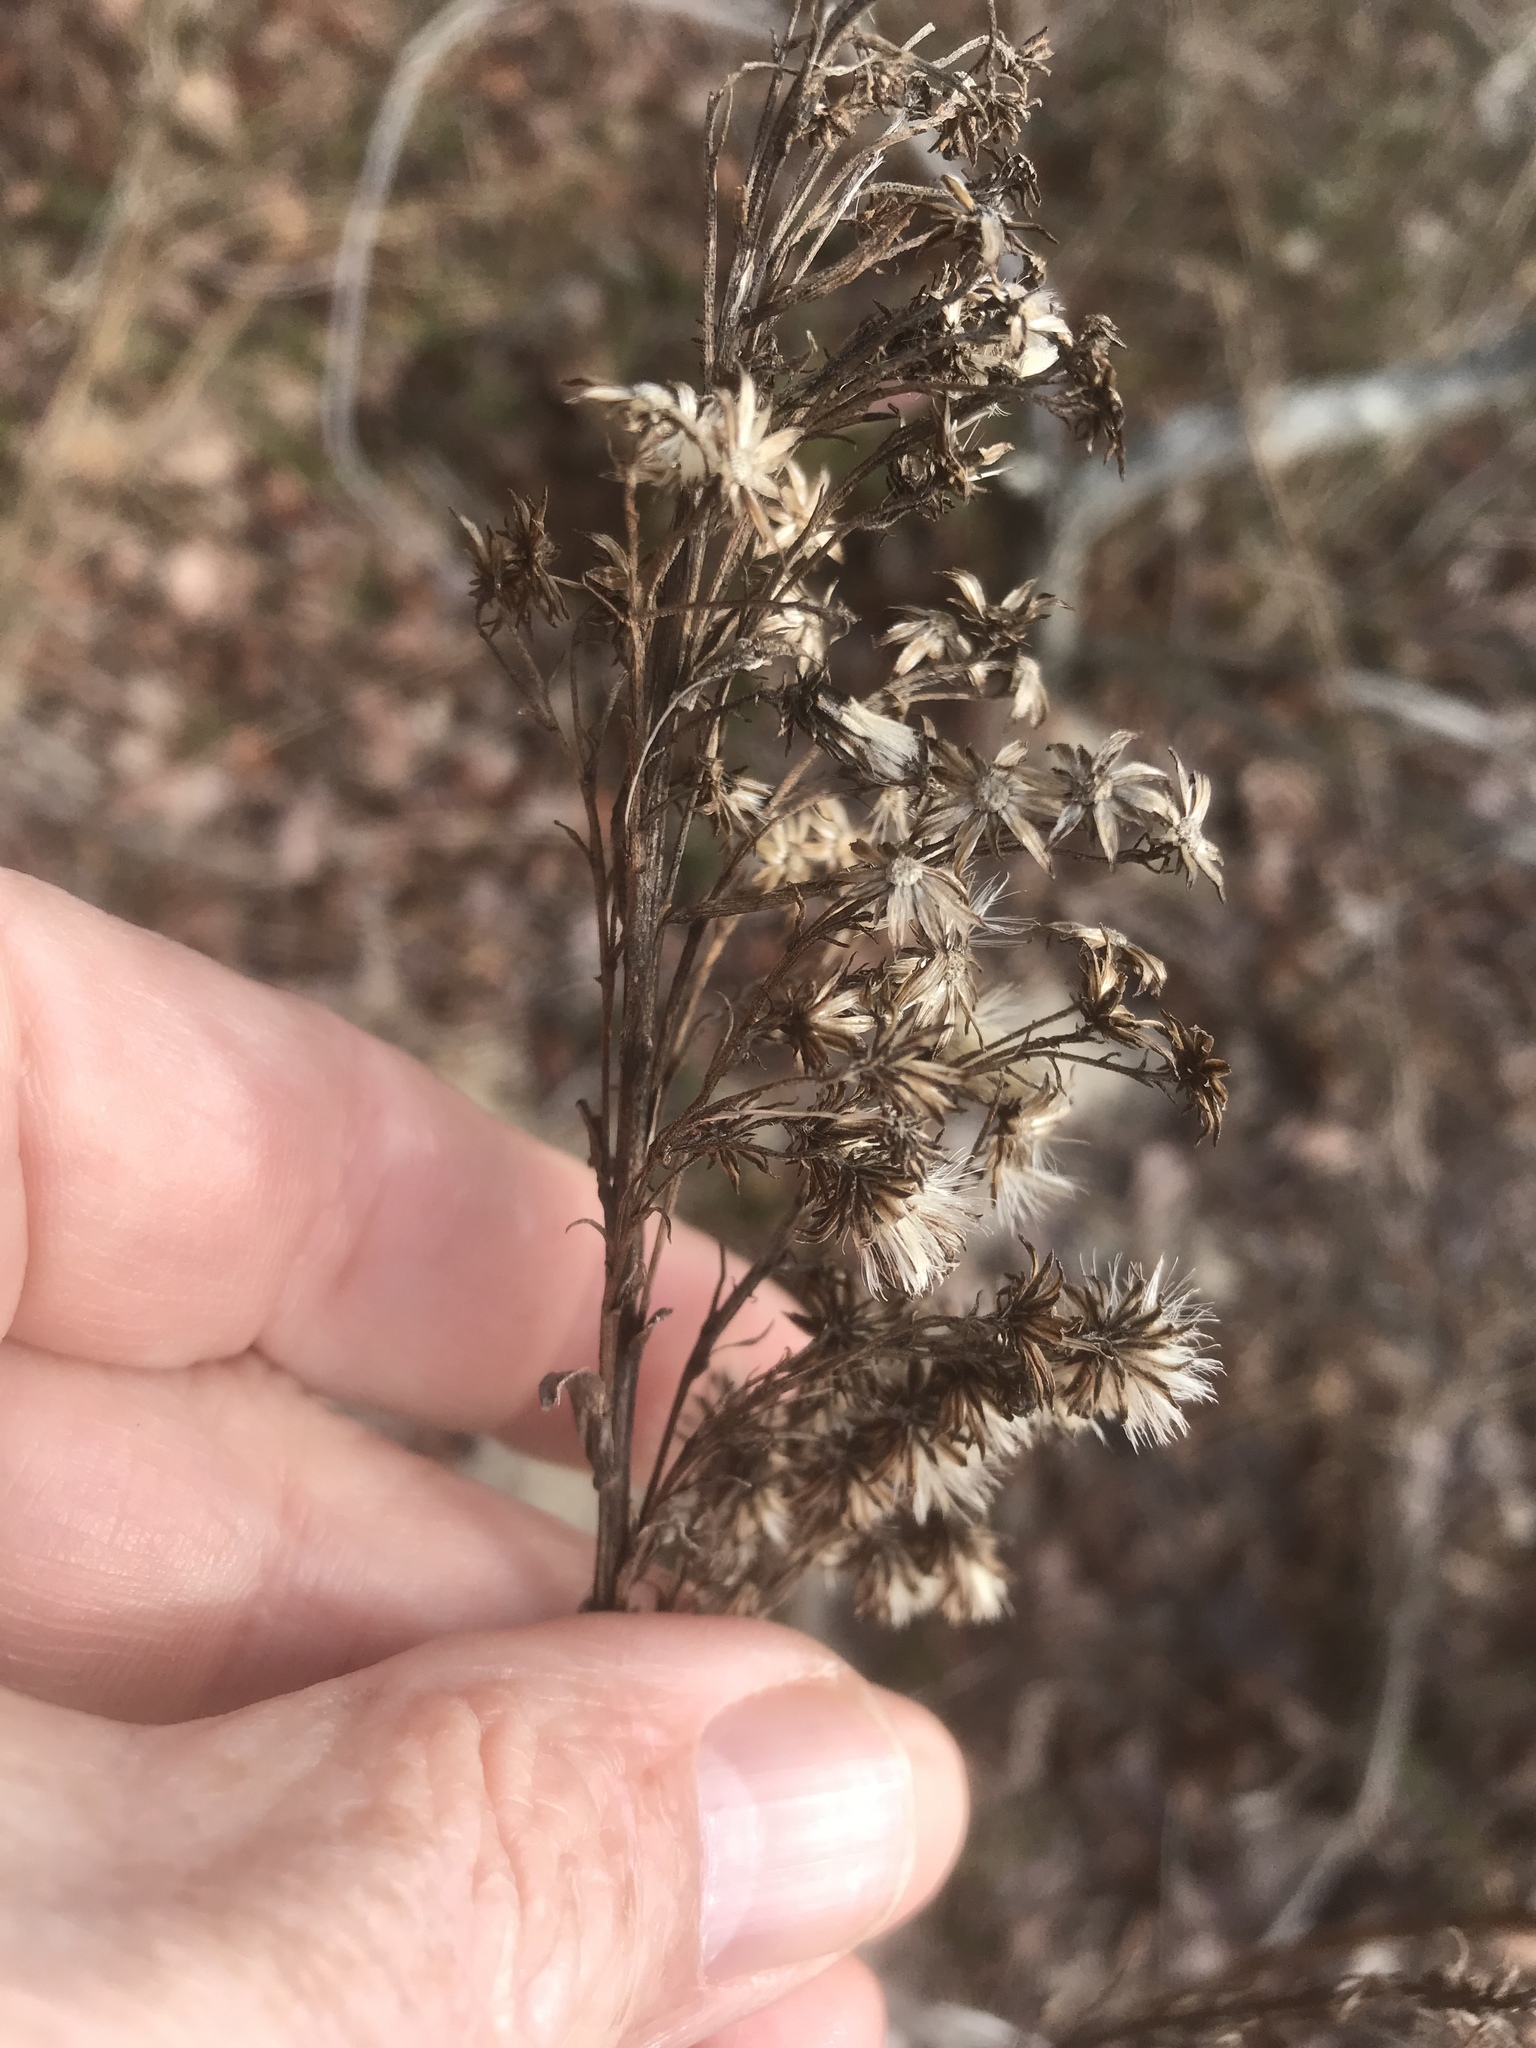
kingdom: Plantae
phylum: Tracheophyta
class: Magnoliopsida
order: Asterales
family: Asteraceae
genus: Solidago
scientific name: Solidago mexicana
